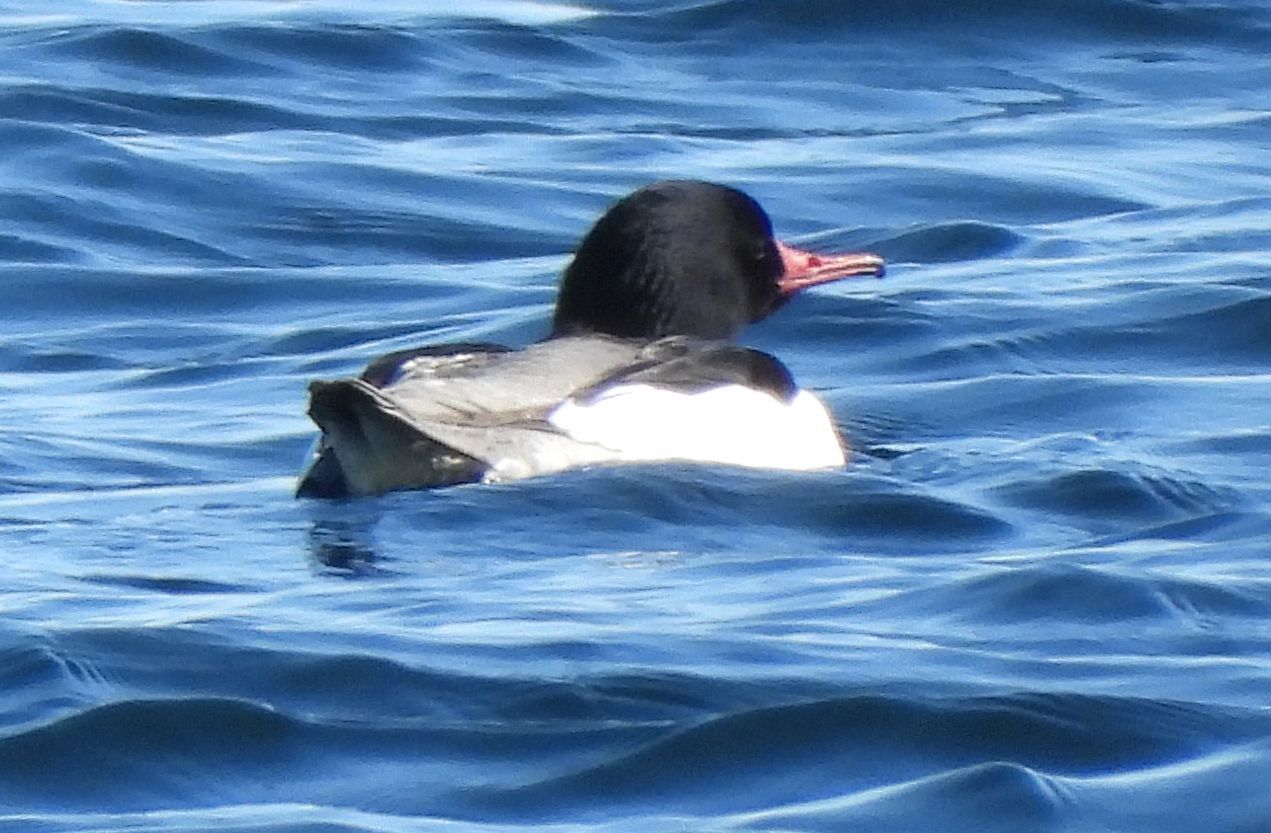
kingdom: Animalia
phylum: Chordata
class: Aves
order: Anseriformes
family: Anatidae
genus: Mergus
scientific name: Mergus merganser
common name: Common merganser
